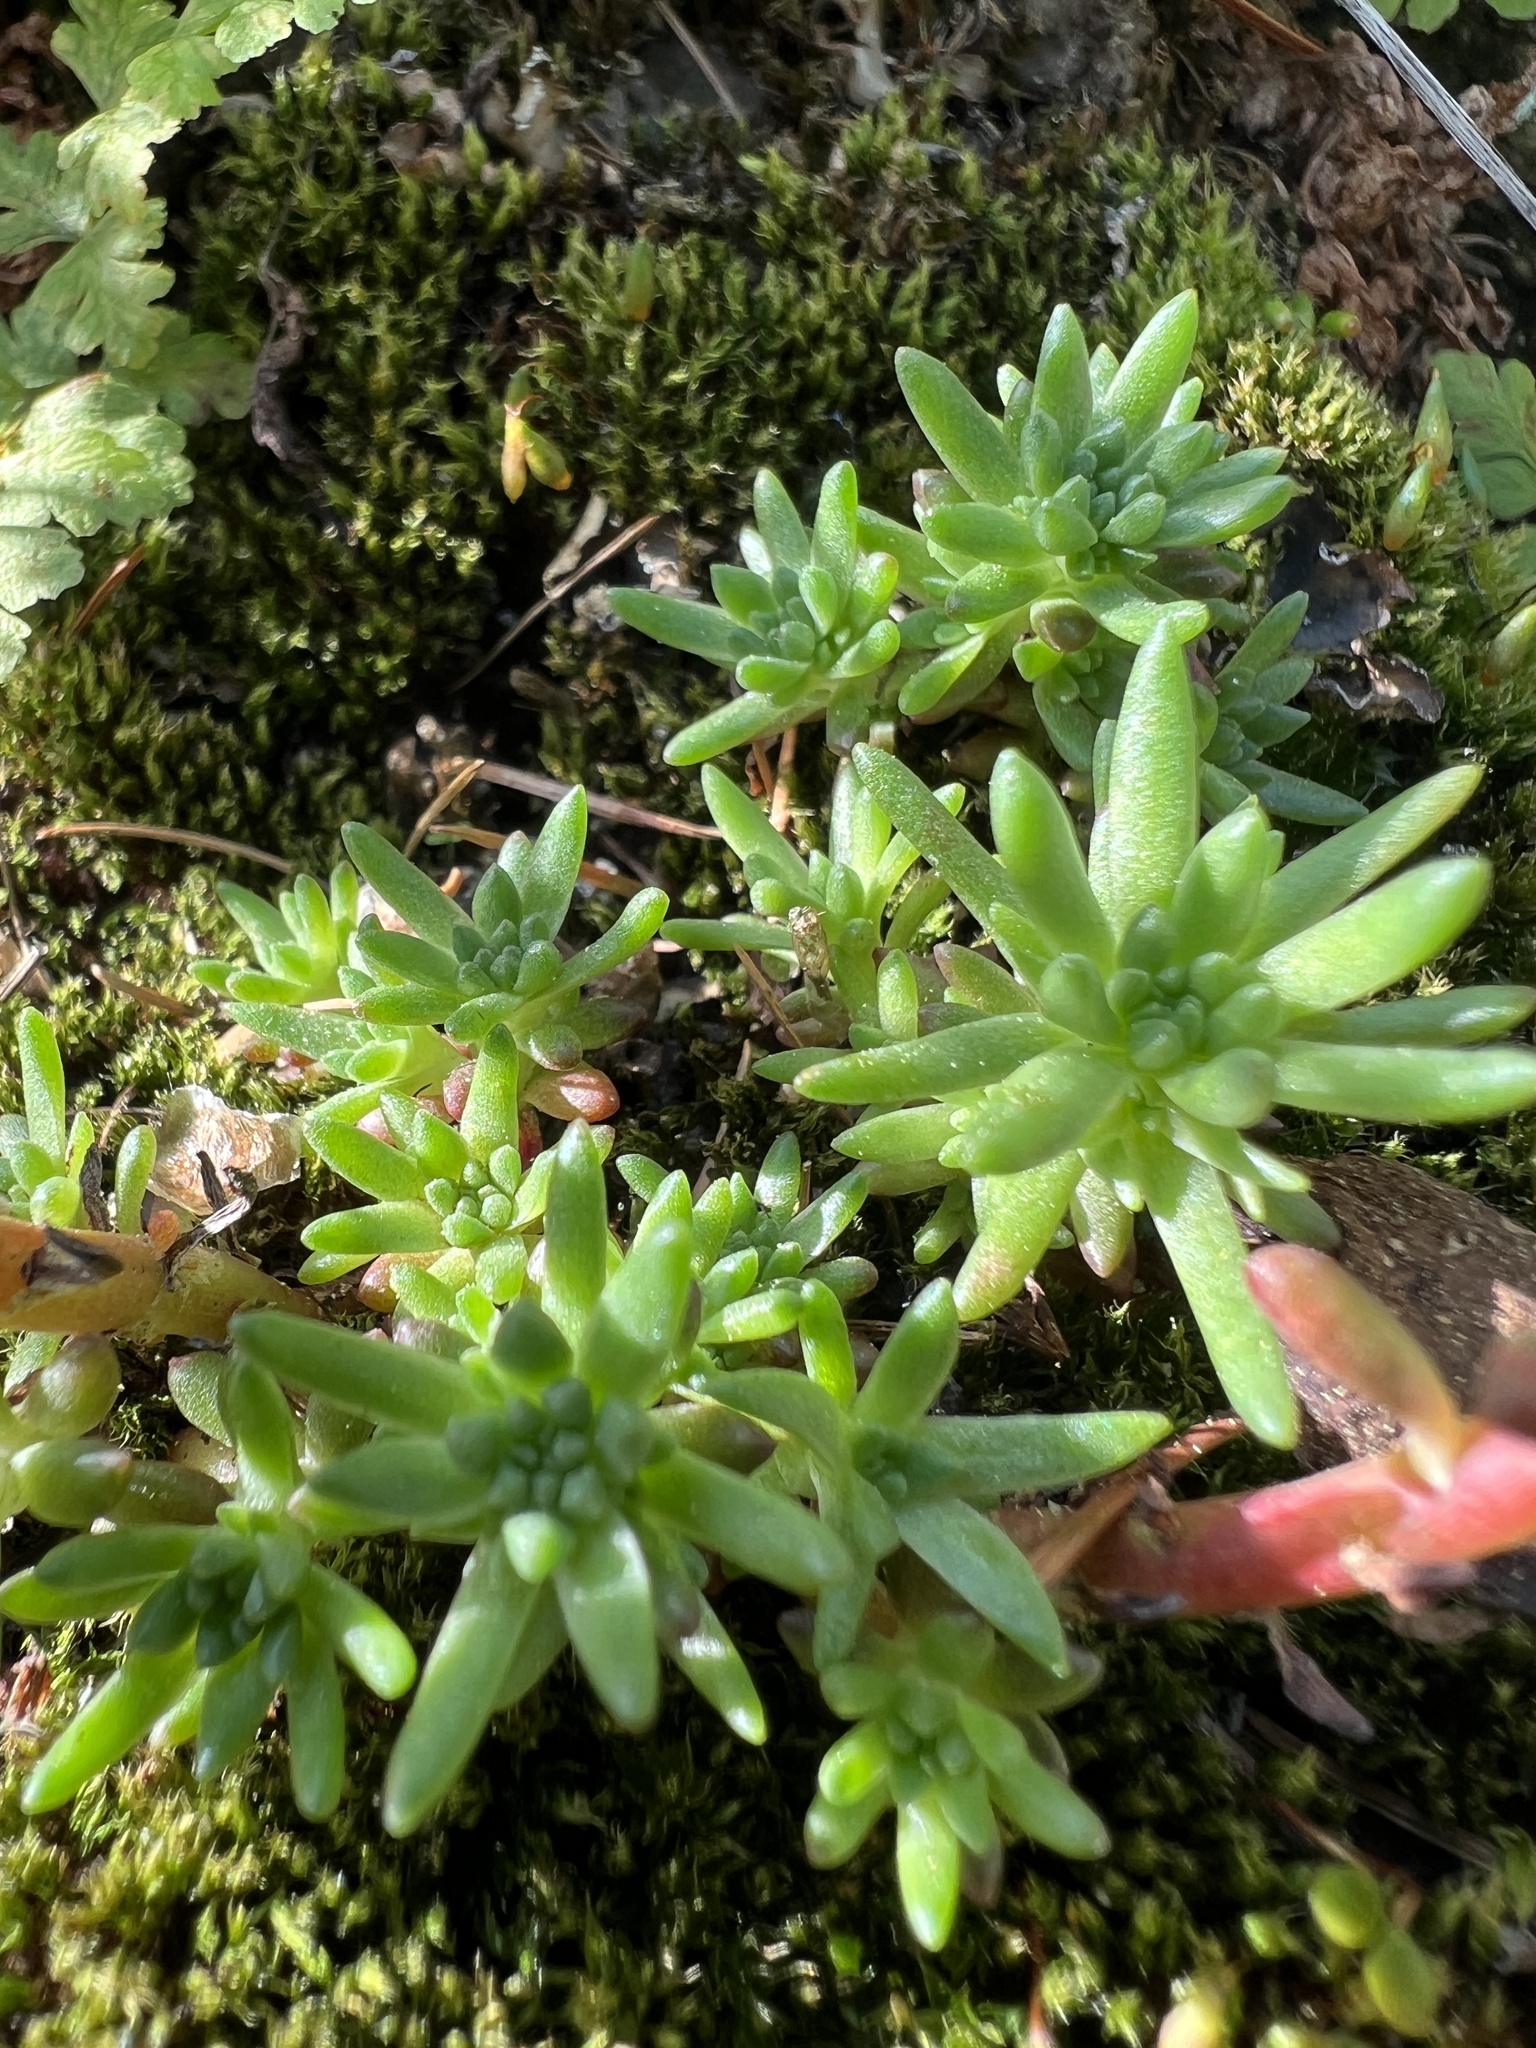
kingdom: Plantae
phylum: Tracheophyta
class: Magnoliopsida
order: Saxifragales
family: Crassulaceae
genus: Sedum
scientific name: Sedum stenopetalum
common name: Narrow-petaled stonecrop
